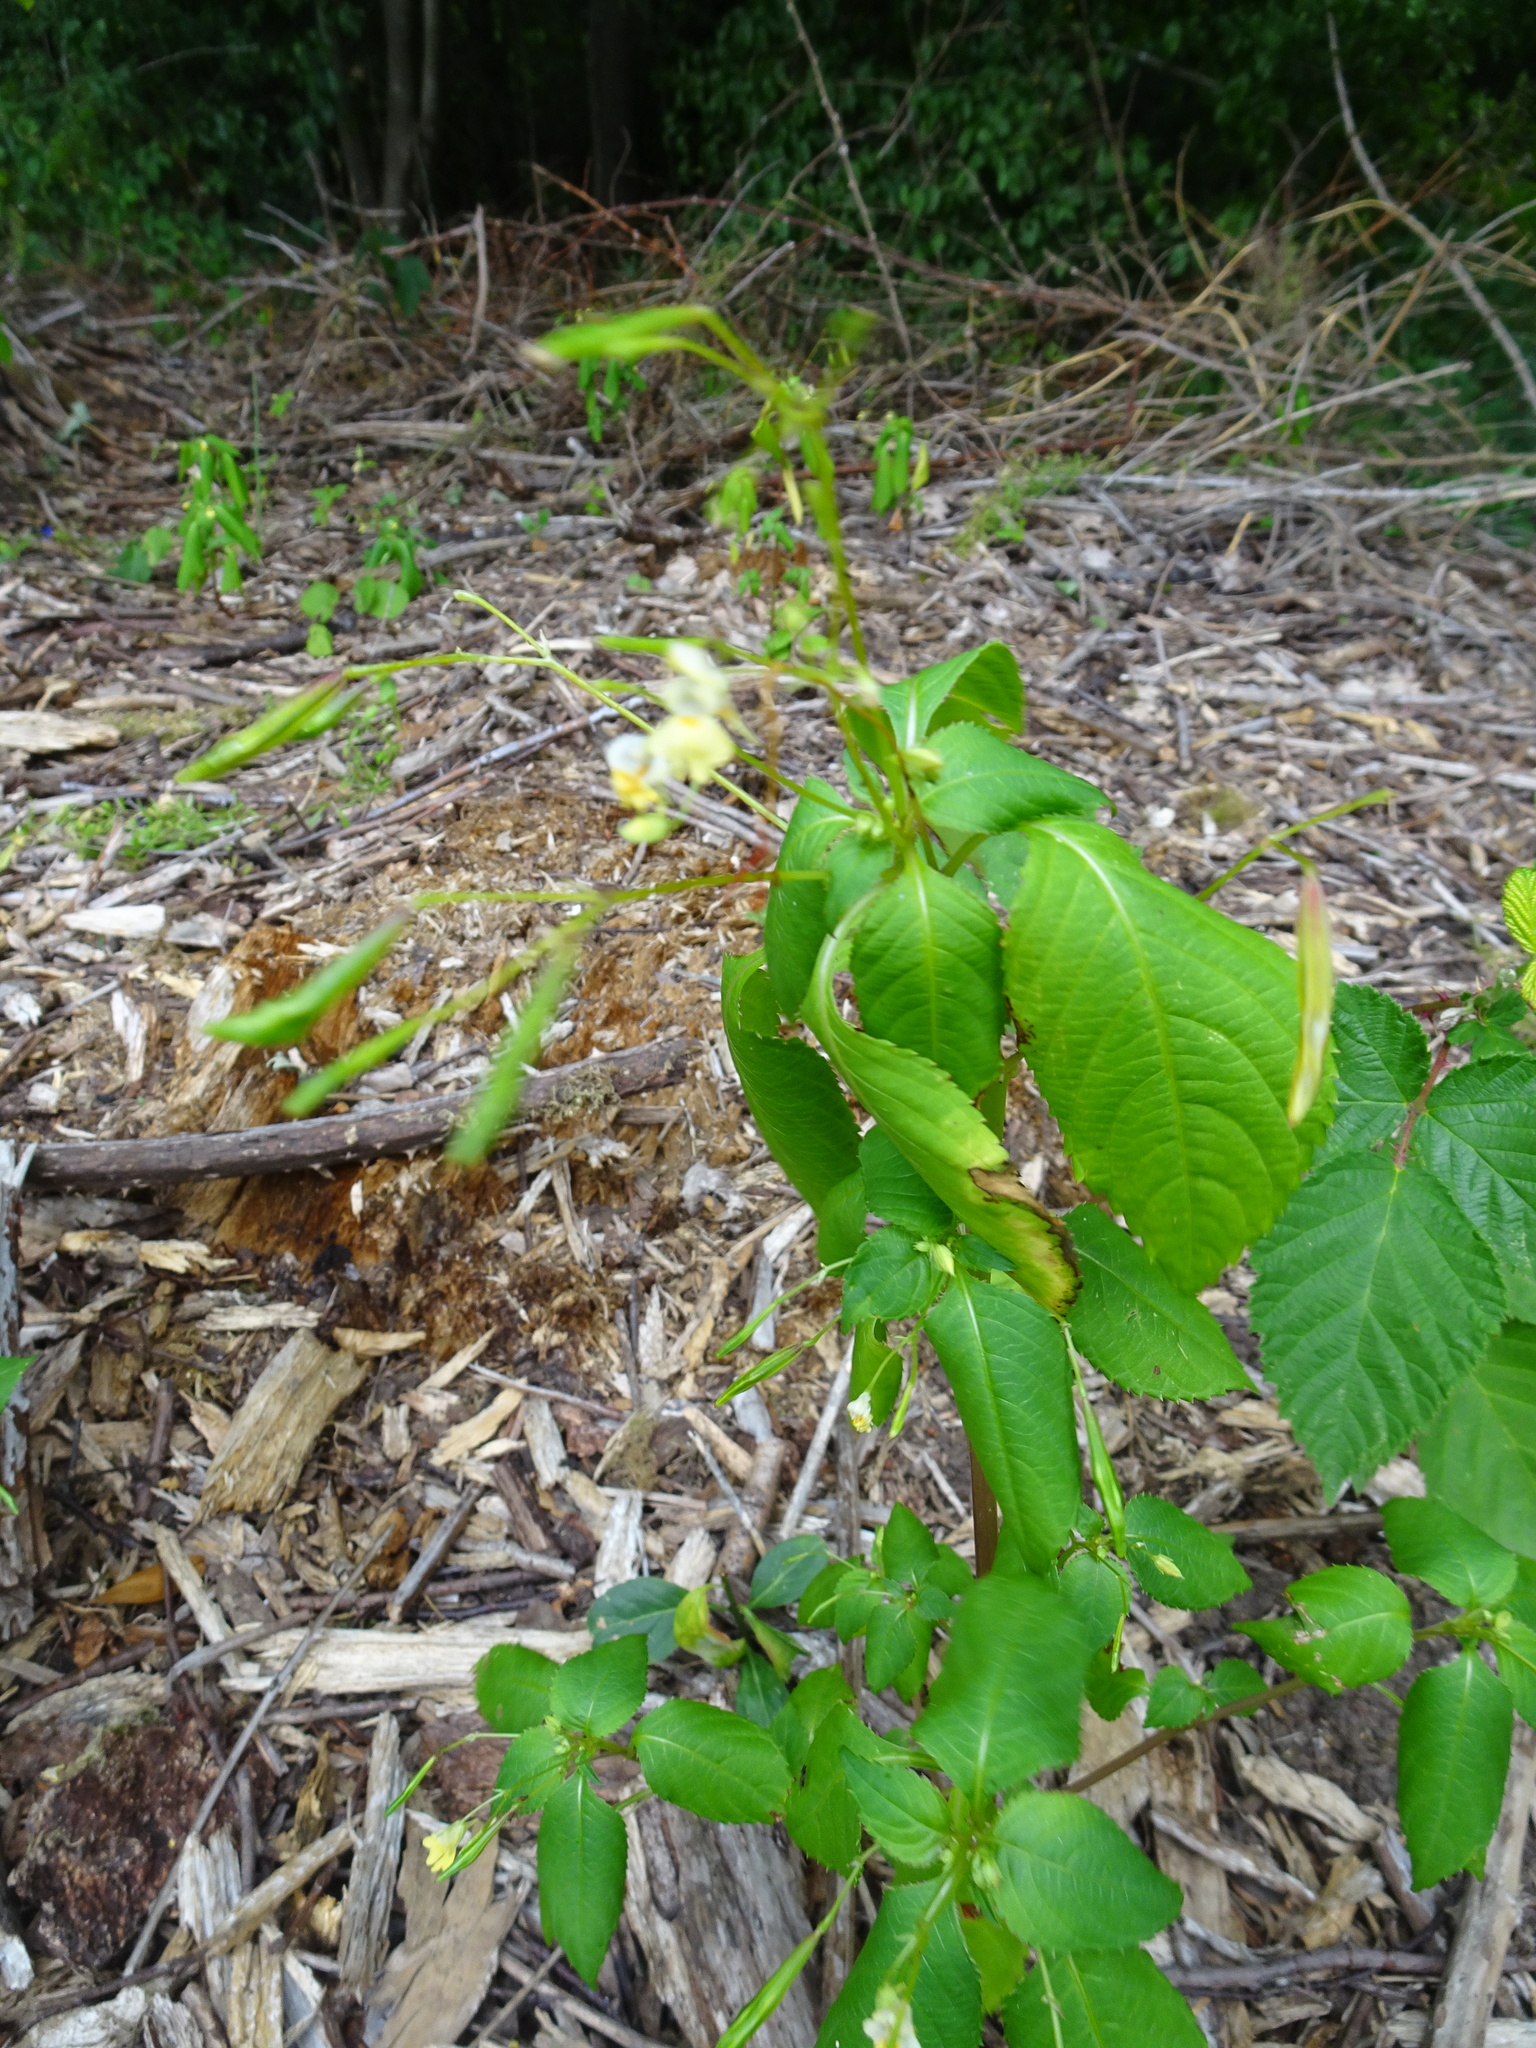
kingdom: Plantae
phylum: Tracheophyta
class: Magnoliopsida
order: Ericales
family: Balsaminaceae
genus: Impatiens
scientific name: Impatiens parviflora
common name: Small balsam
